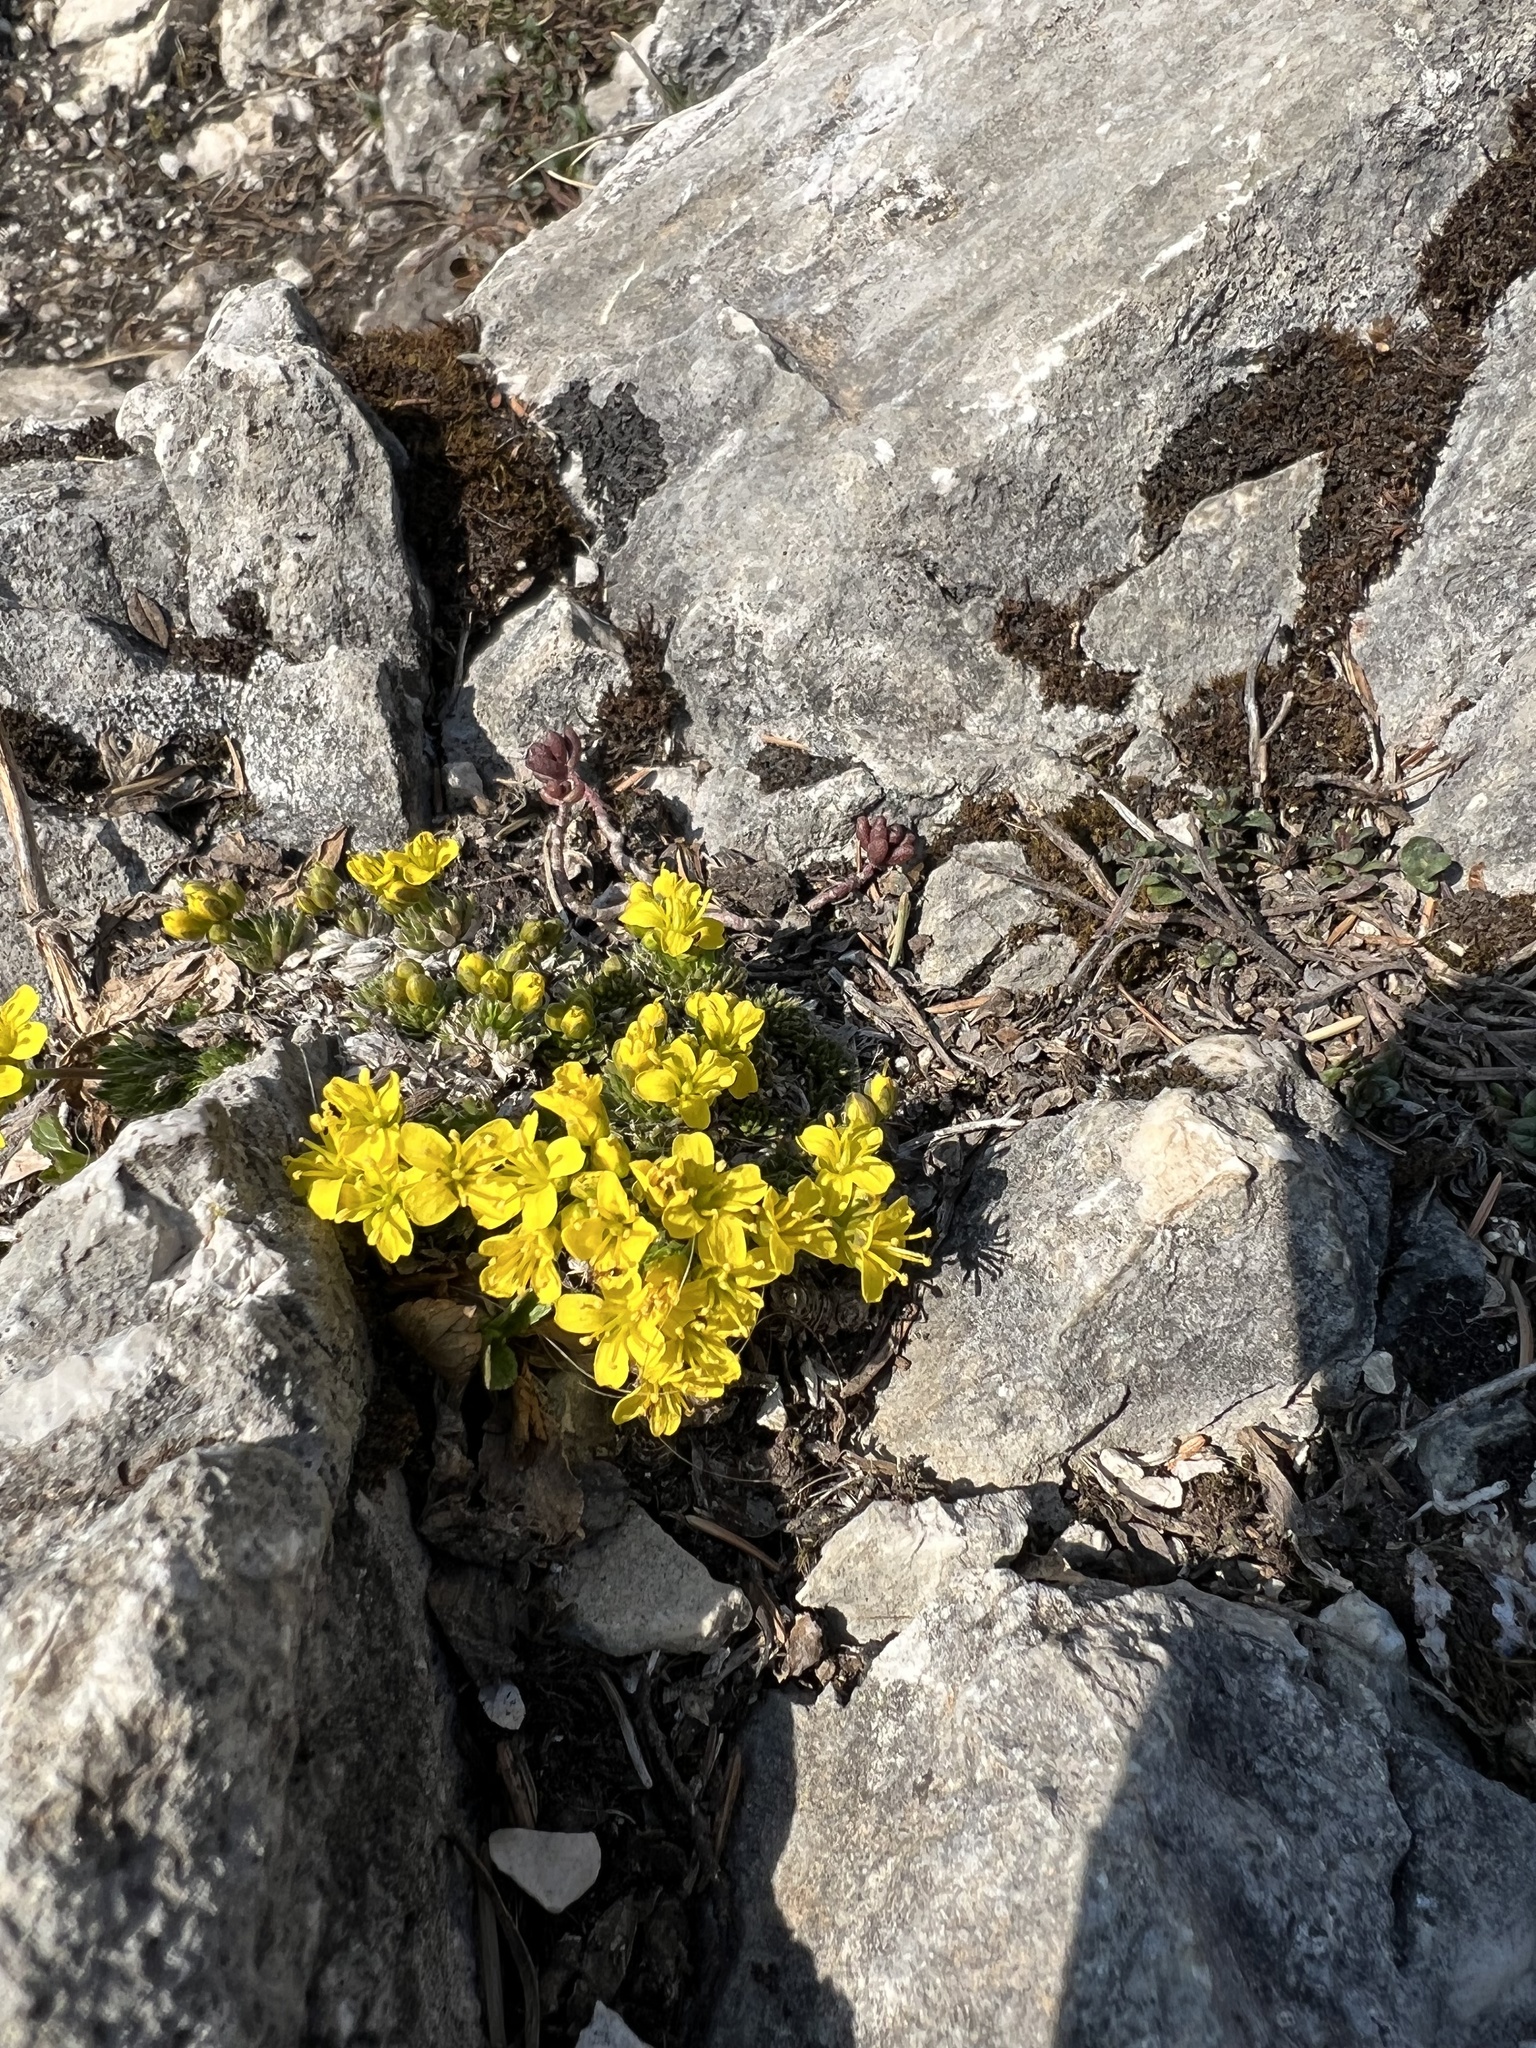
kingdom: Plantae
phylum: Tracheophyta
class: Magnoliopsida
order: Brassicales
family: Brassicaceae
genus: Draba
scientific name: Draba aizoides
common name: Yellow whitlowgrass
